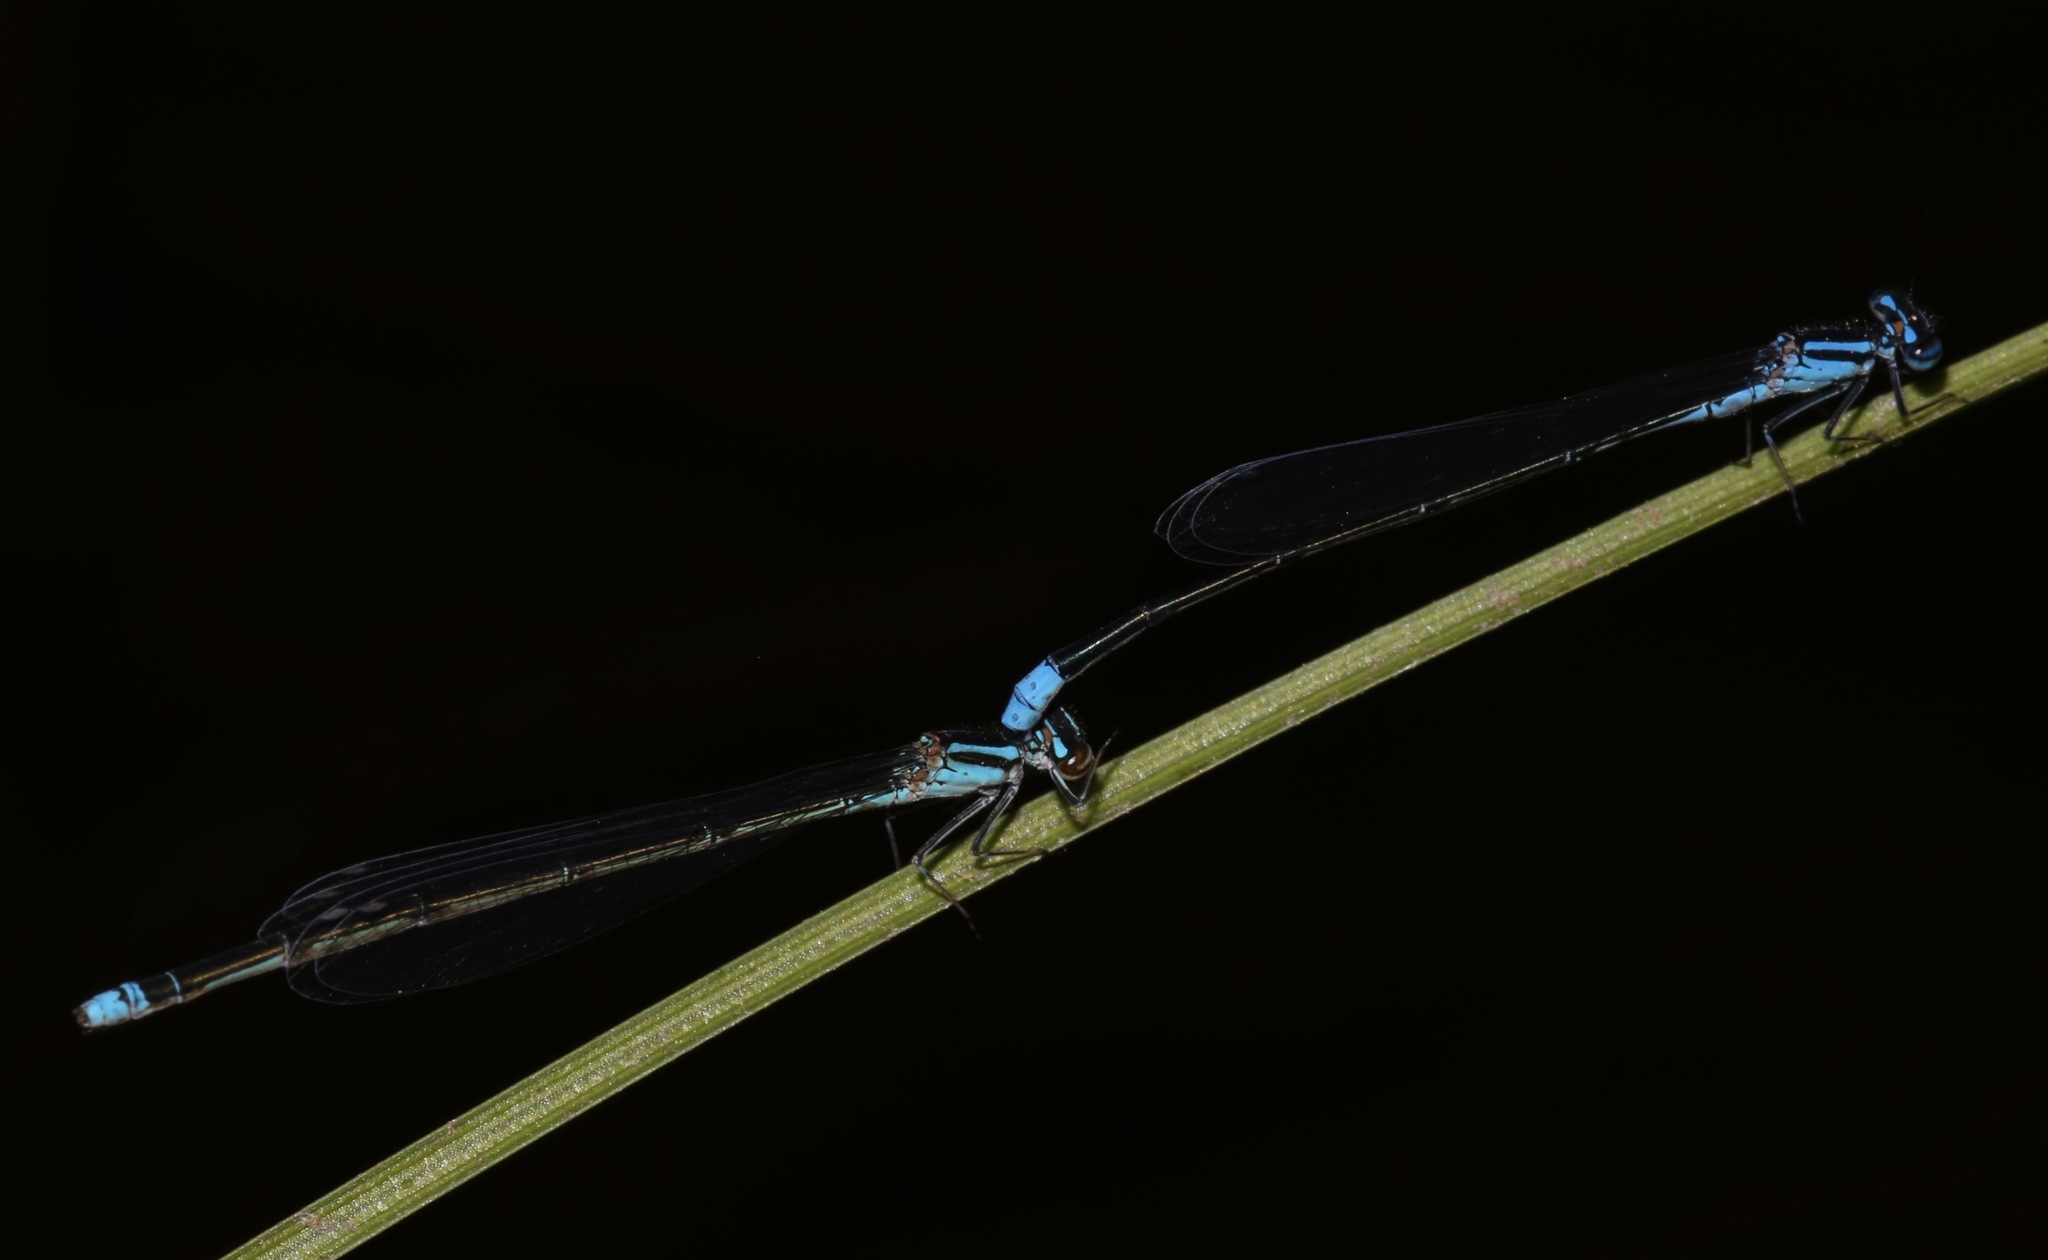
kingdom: Animalia
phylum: Arthropoda
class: Insecta
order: Odonata
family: Coenagrionidae
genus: Enallagma
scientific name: Enallagma divagans
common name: Turquoise bluet
